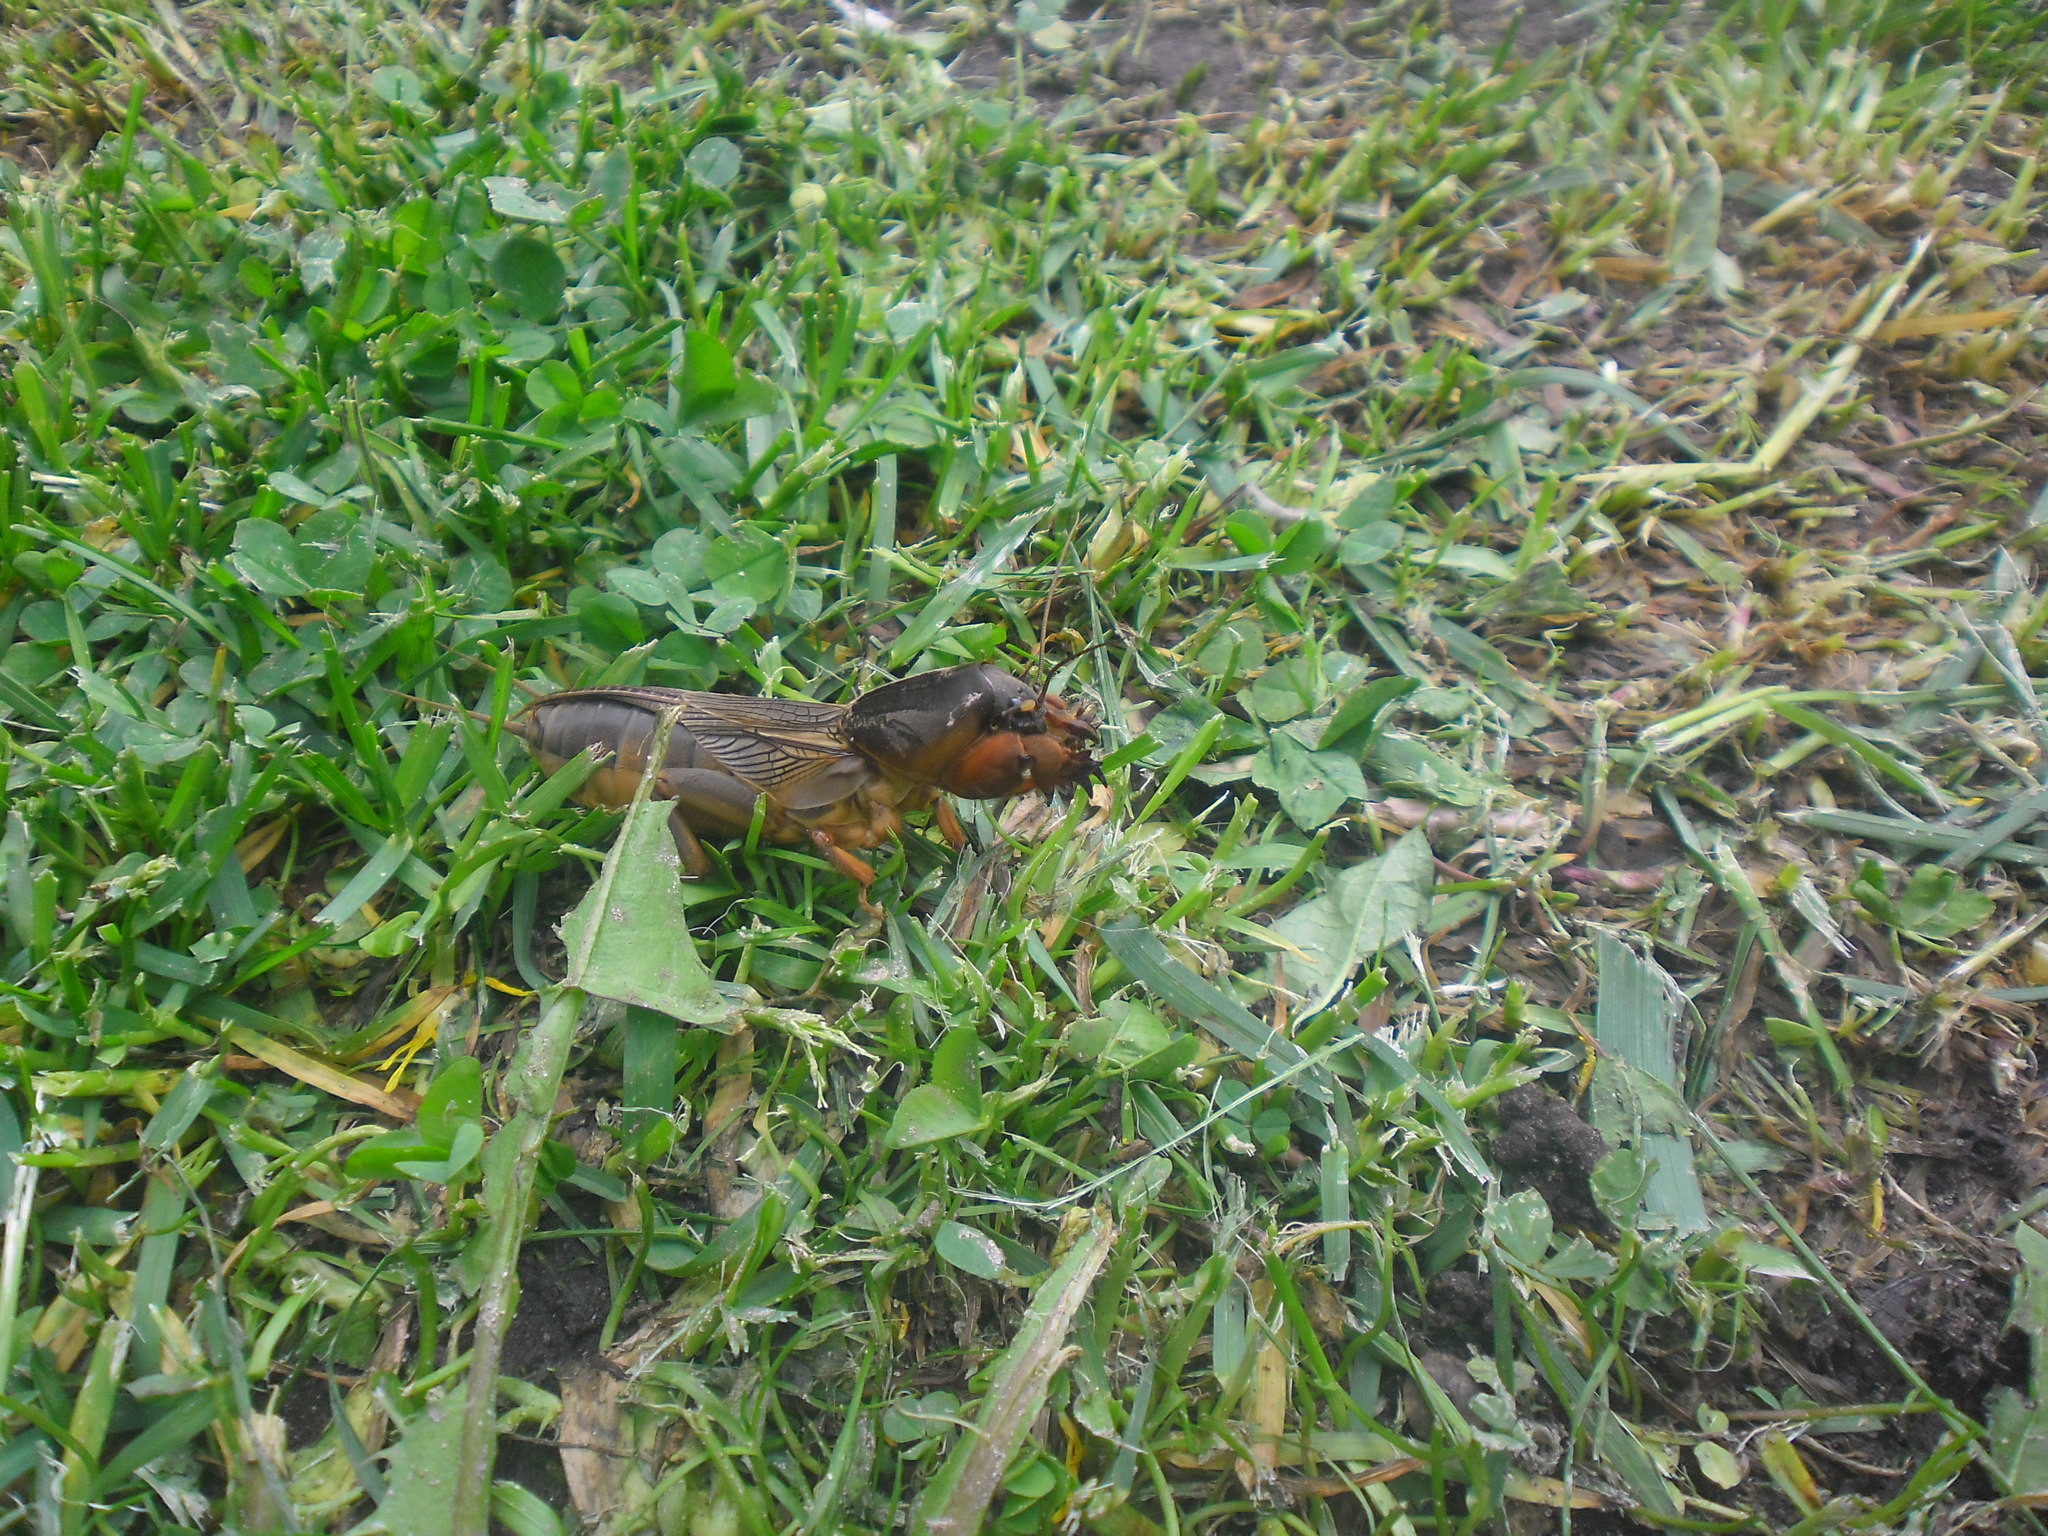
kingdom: Animalia
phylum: Arthropoda
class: Insecta
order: Orthoptera
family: Gryllotalpidae
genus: Gryllotalpa
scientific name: Gryllotalpa gryllotalpa
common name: European mole cricket
